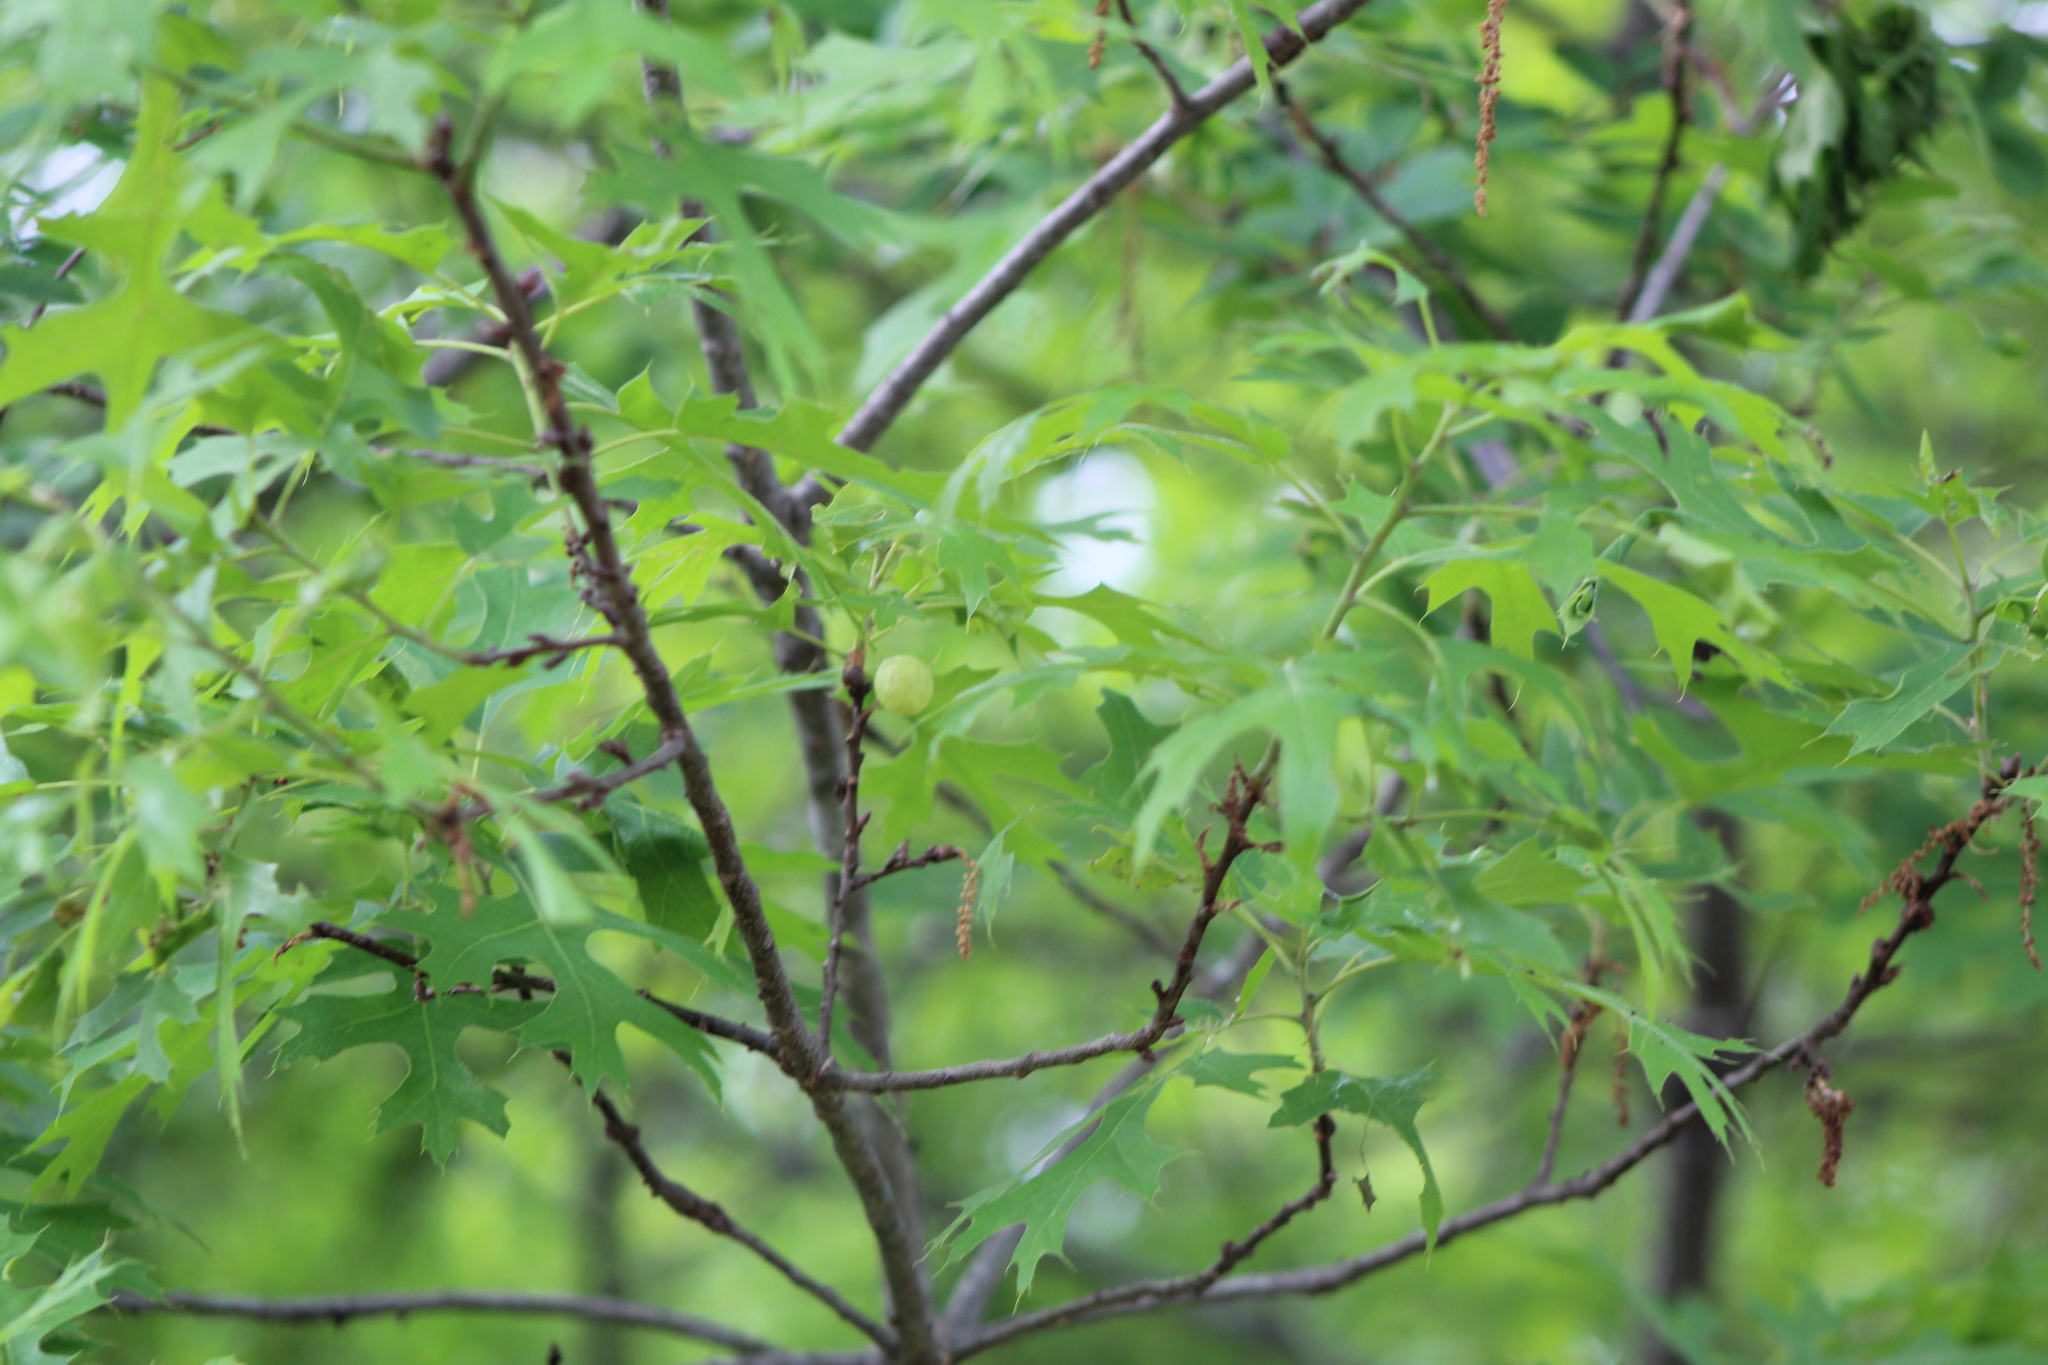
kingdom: Animalia
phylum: Arthropoda
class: Insecta
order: Hymenoptera
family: Cynipidae
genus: Dryocosmus
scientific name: Dryocosmus quercuspalustris
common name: Succulent oak gall wasp
